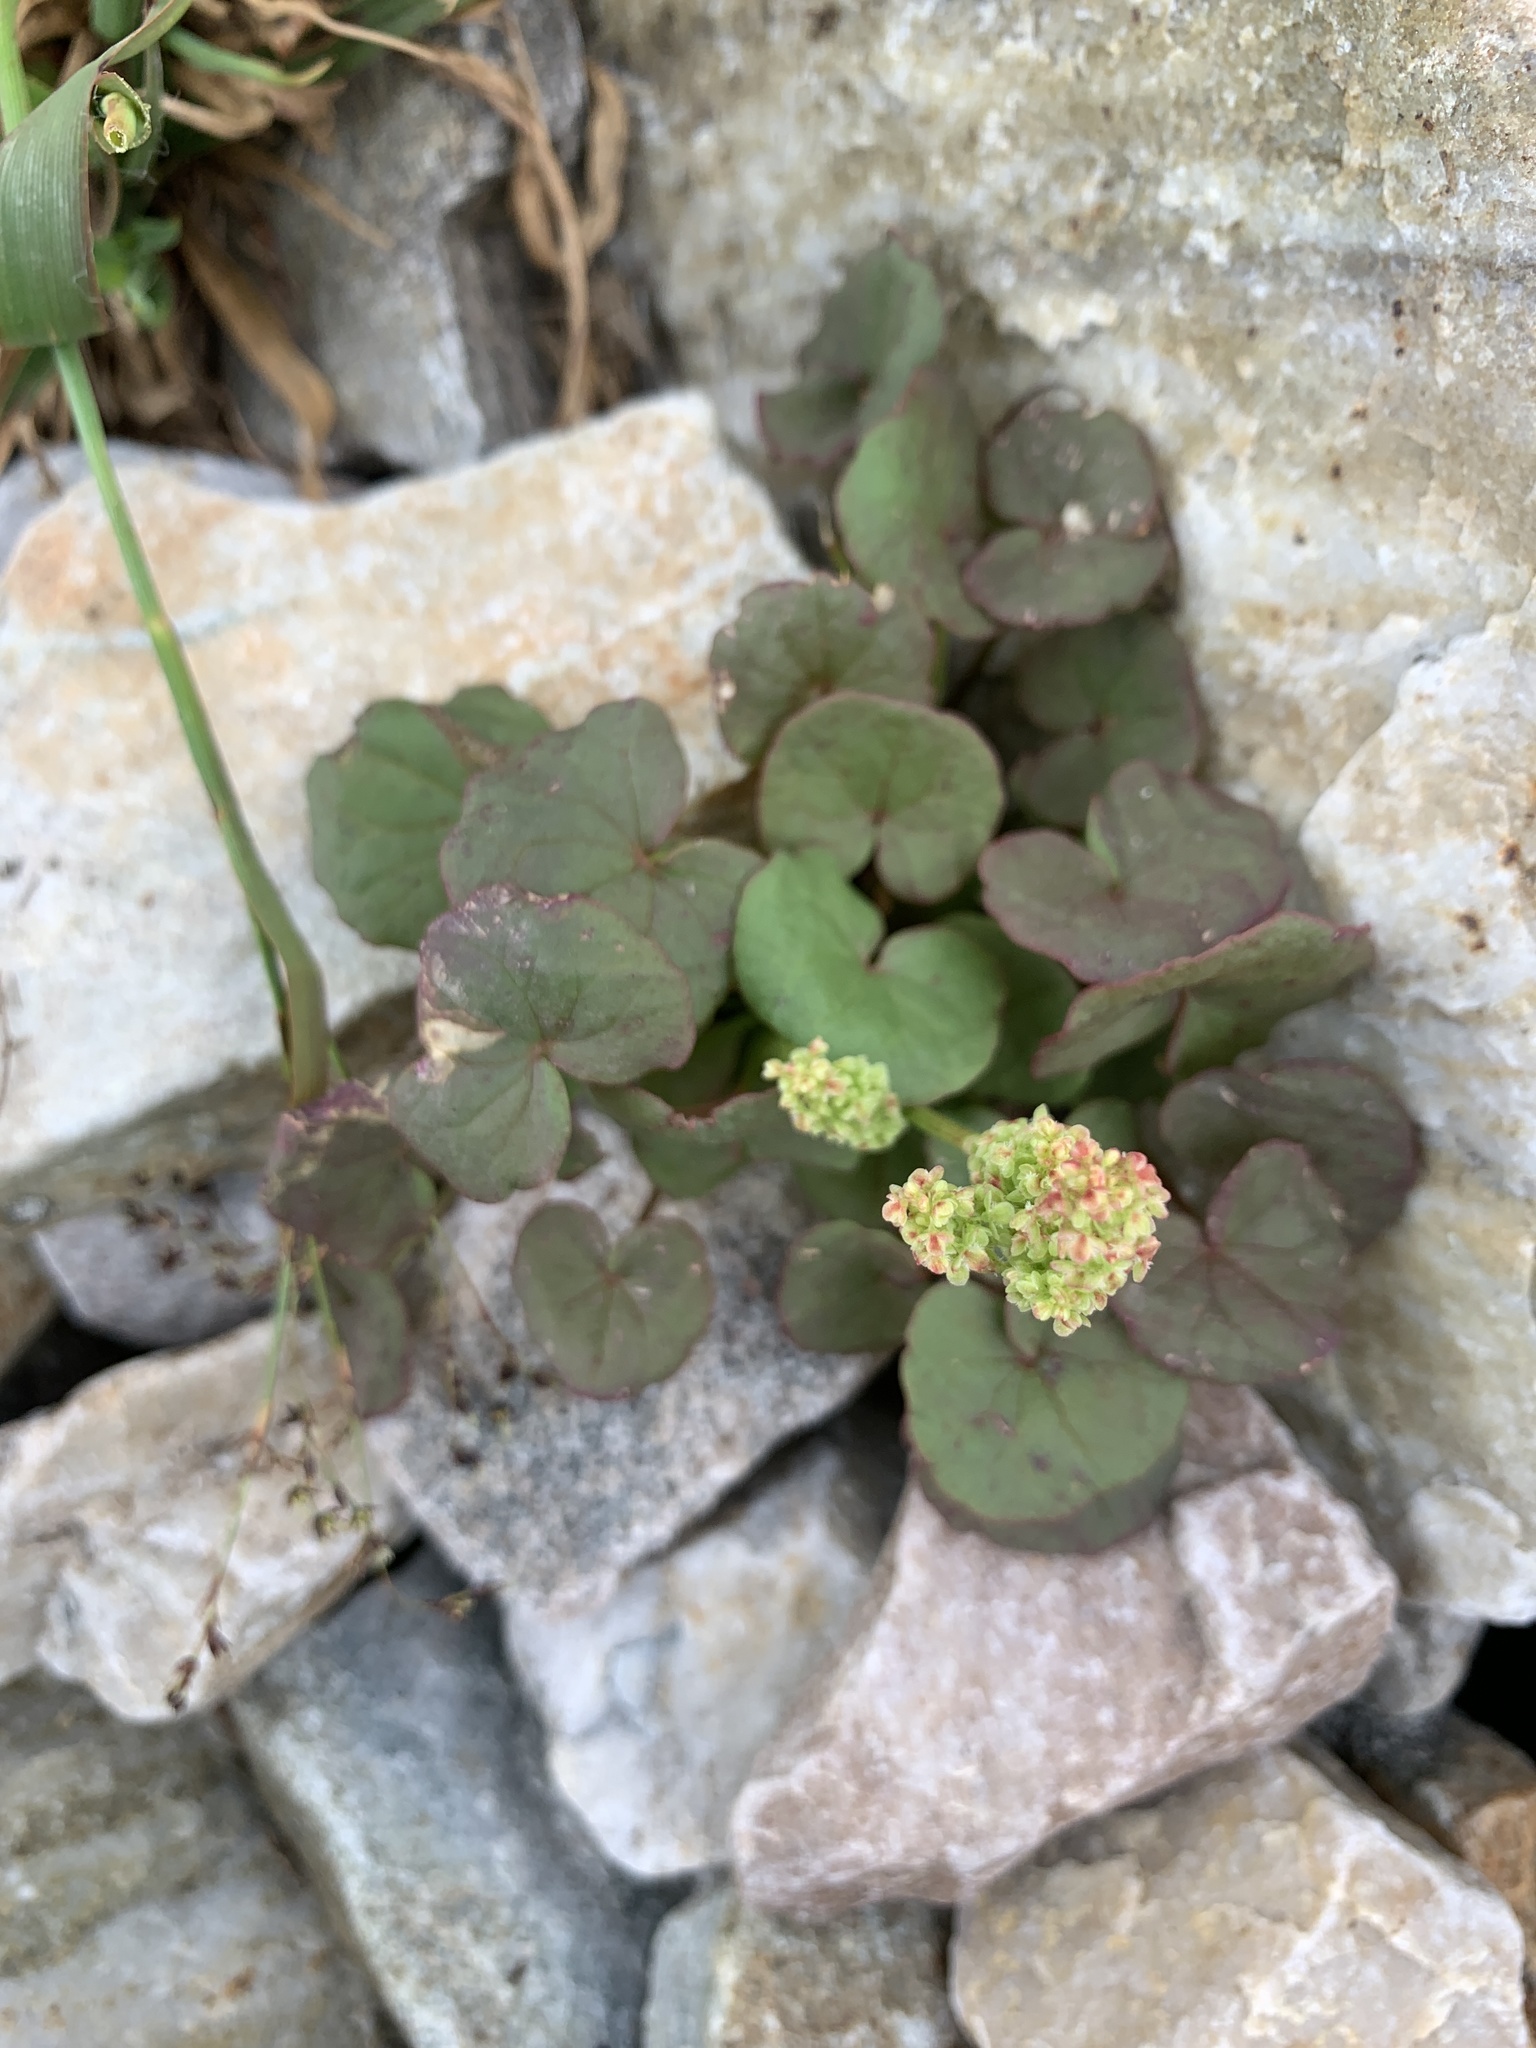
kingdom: Plantae
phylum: Tracheophyta
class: Magnoliopsida
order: Caryophyllales
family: Polygonaceae
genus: Oxyria
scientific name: Oxyria digyna
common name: Alpine mountain-sorrel
